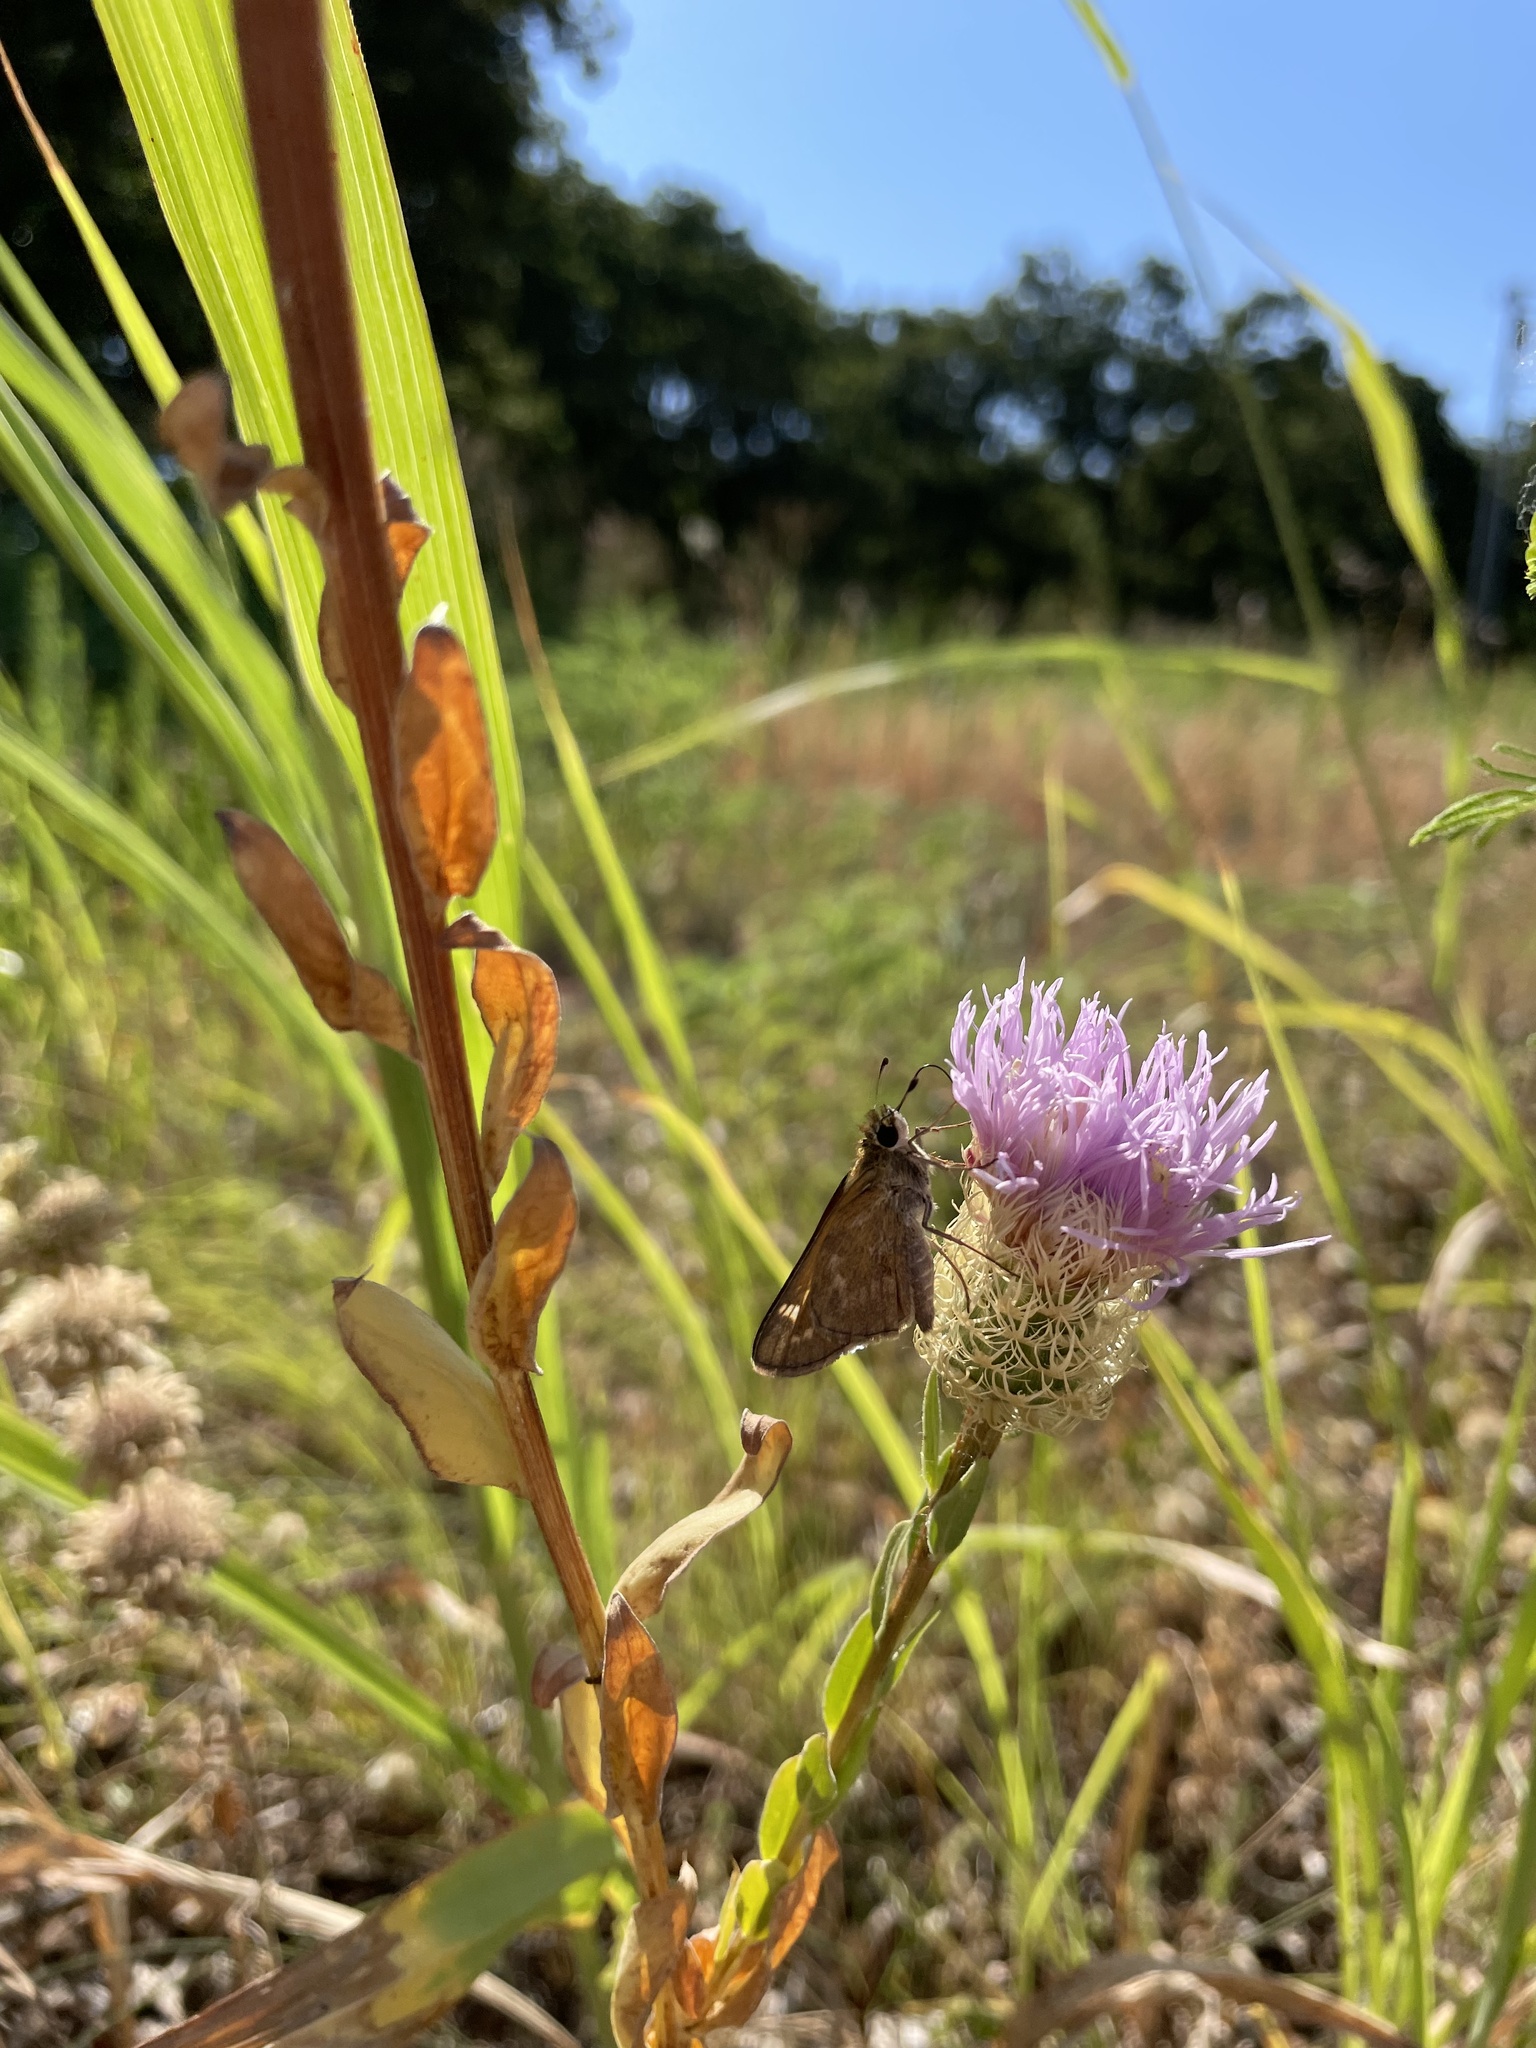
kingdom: Animalia
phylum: Arthropoda
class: Insecta
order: Lepidoptera
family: Hesperiidae
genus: Atalopedes
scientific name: Atalopedes
